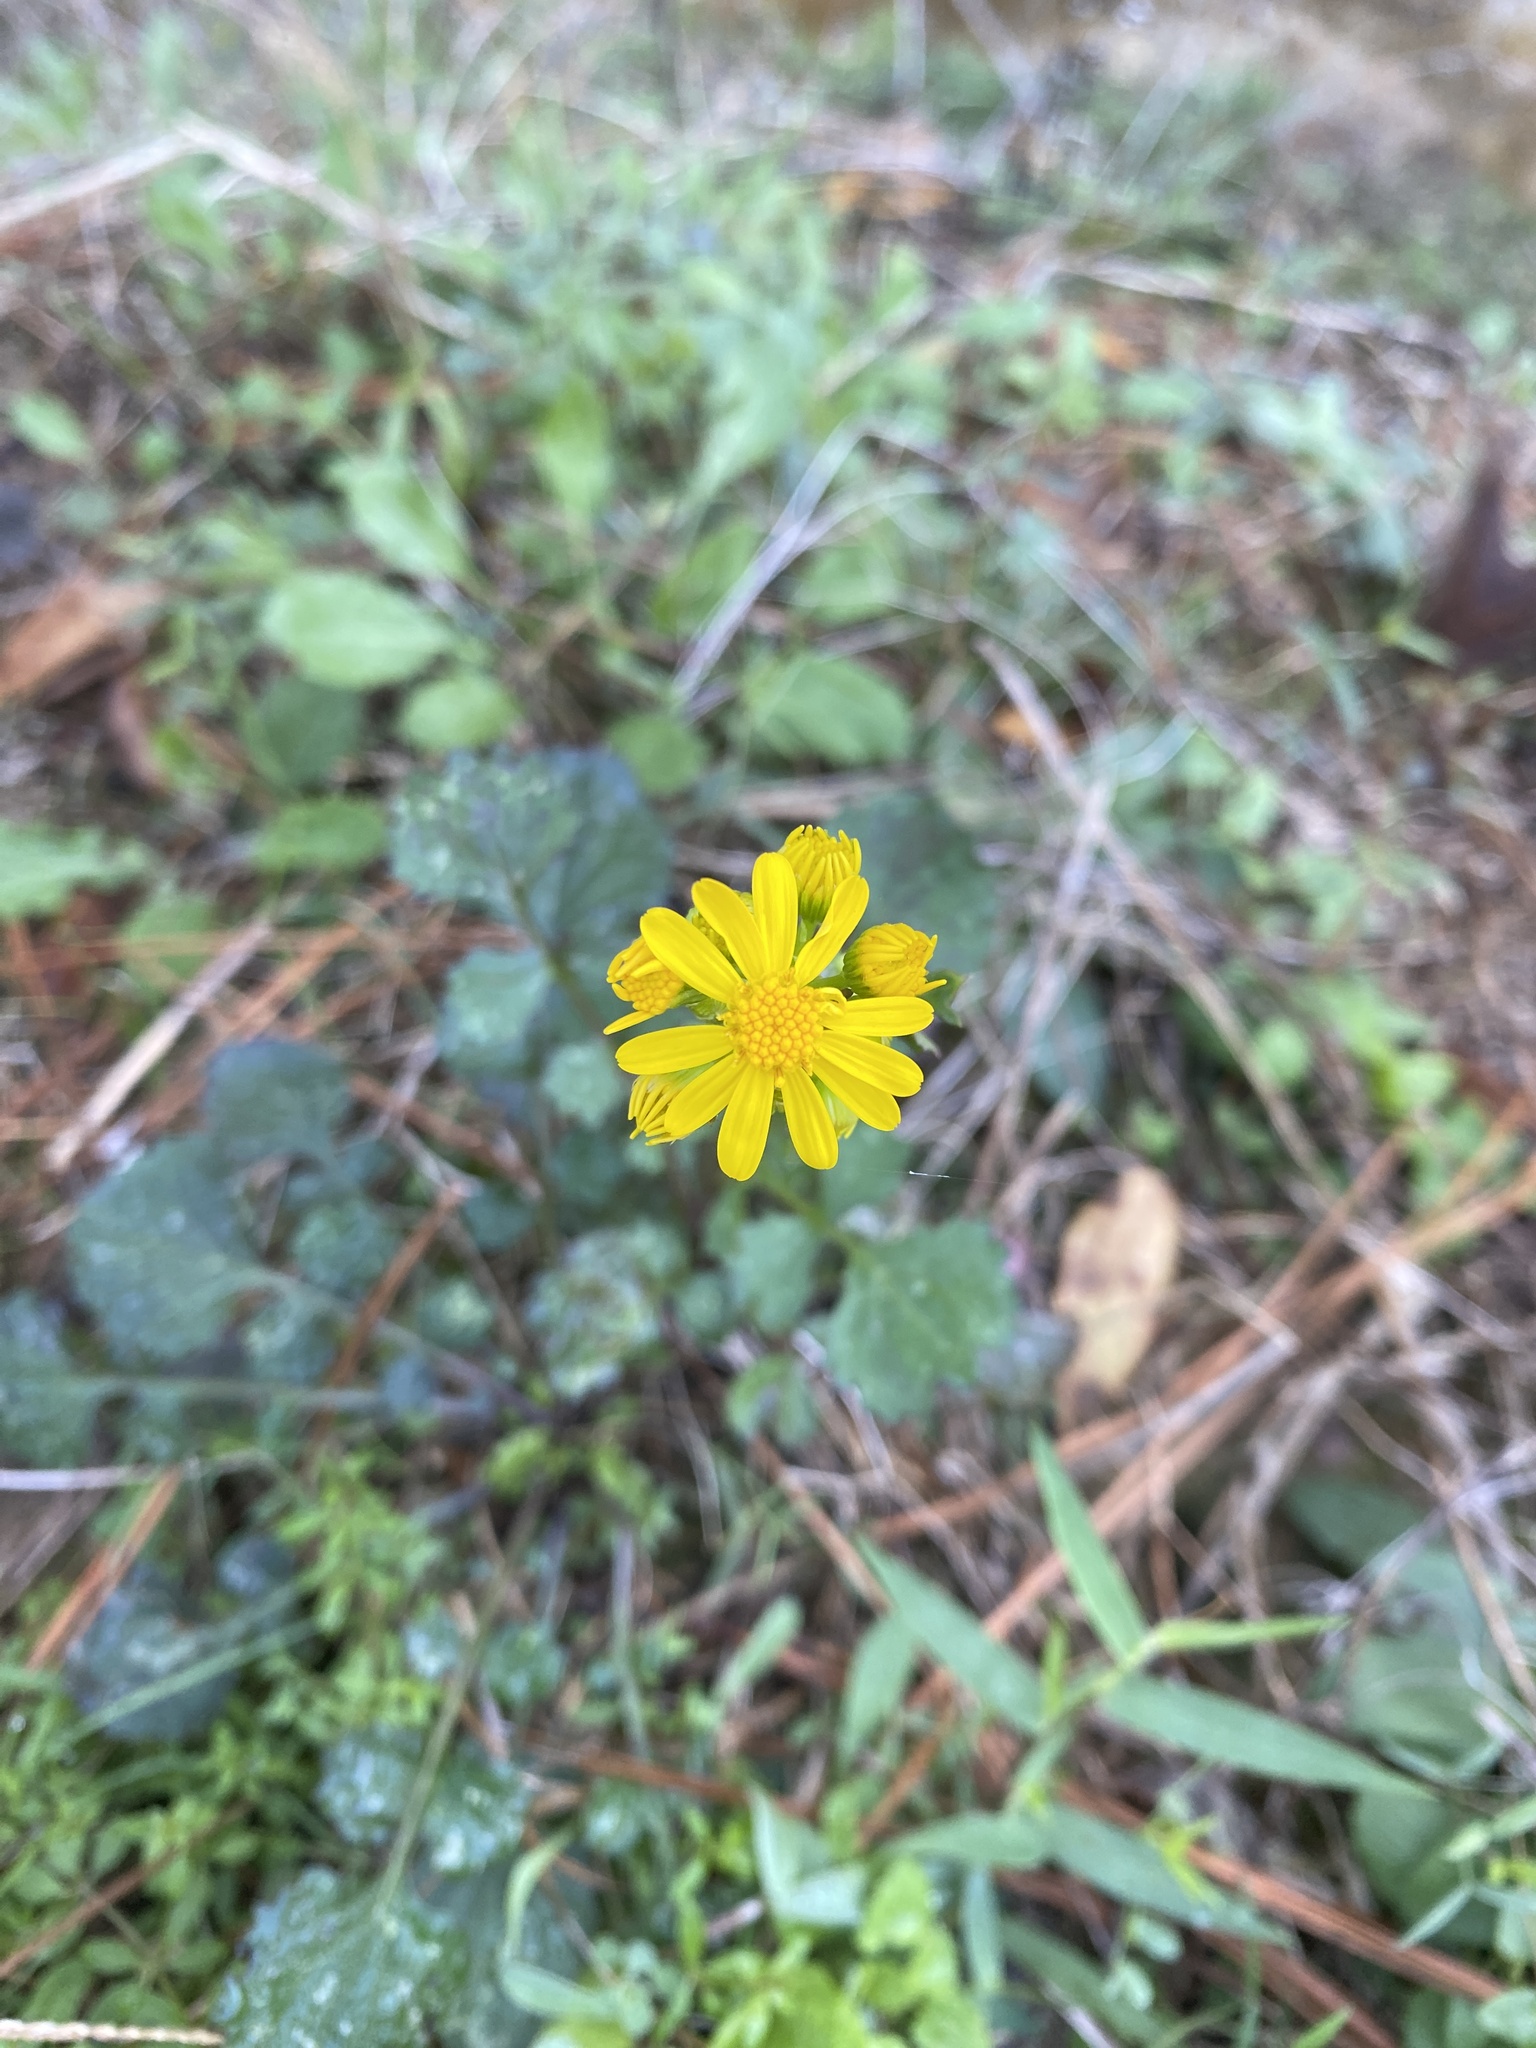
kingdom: Plantae
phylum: Tracheophyta
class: Magnoliopsida
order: Asterales
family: Asteraceae
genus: Packera
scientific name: Packera glabella
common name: Butterweed
